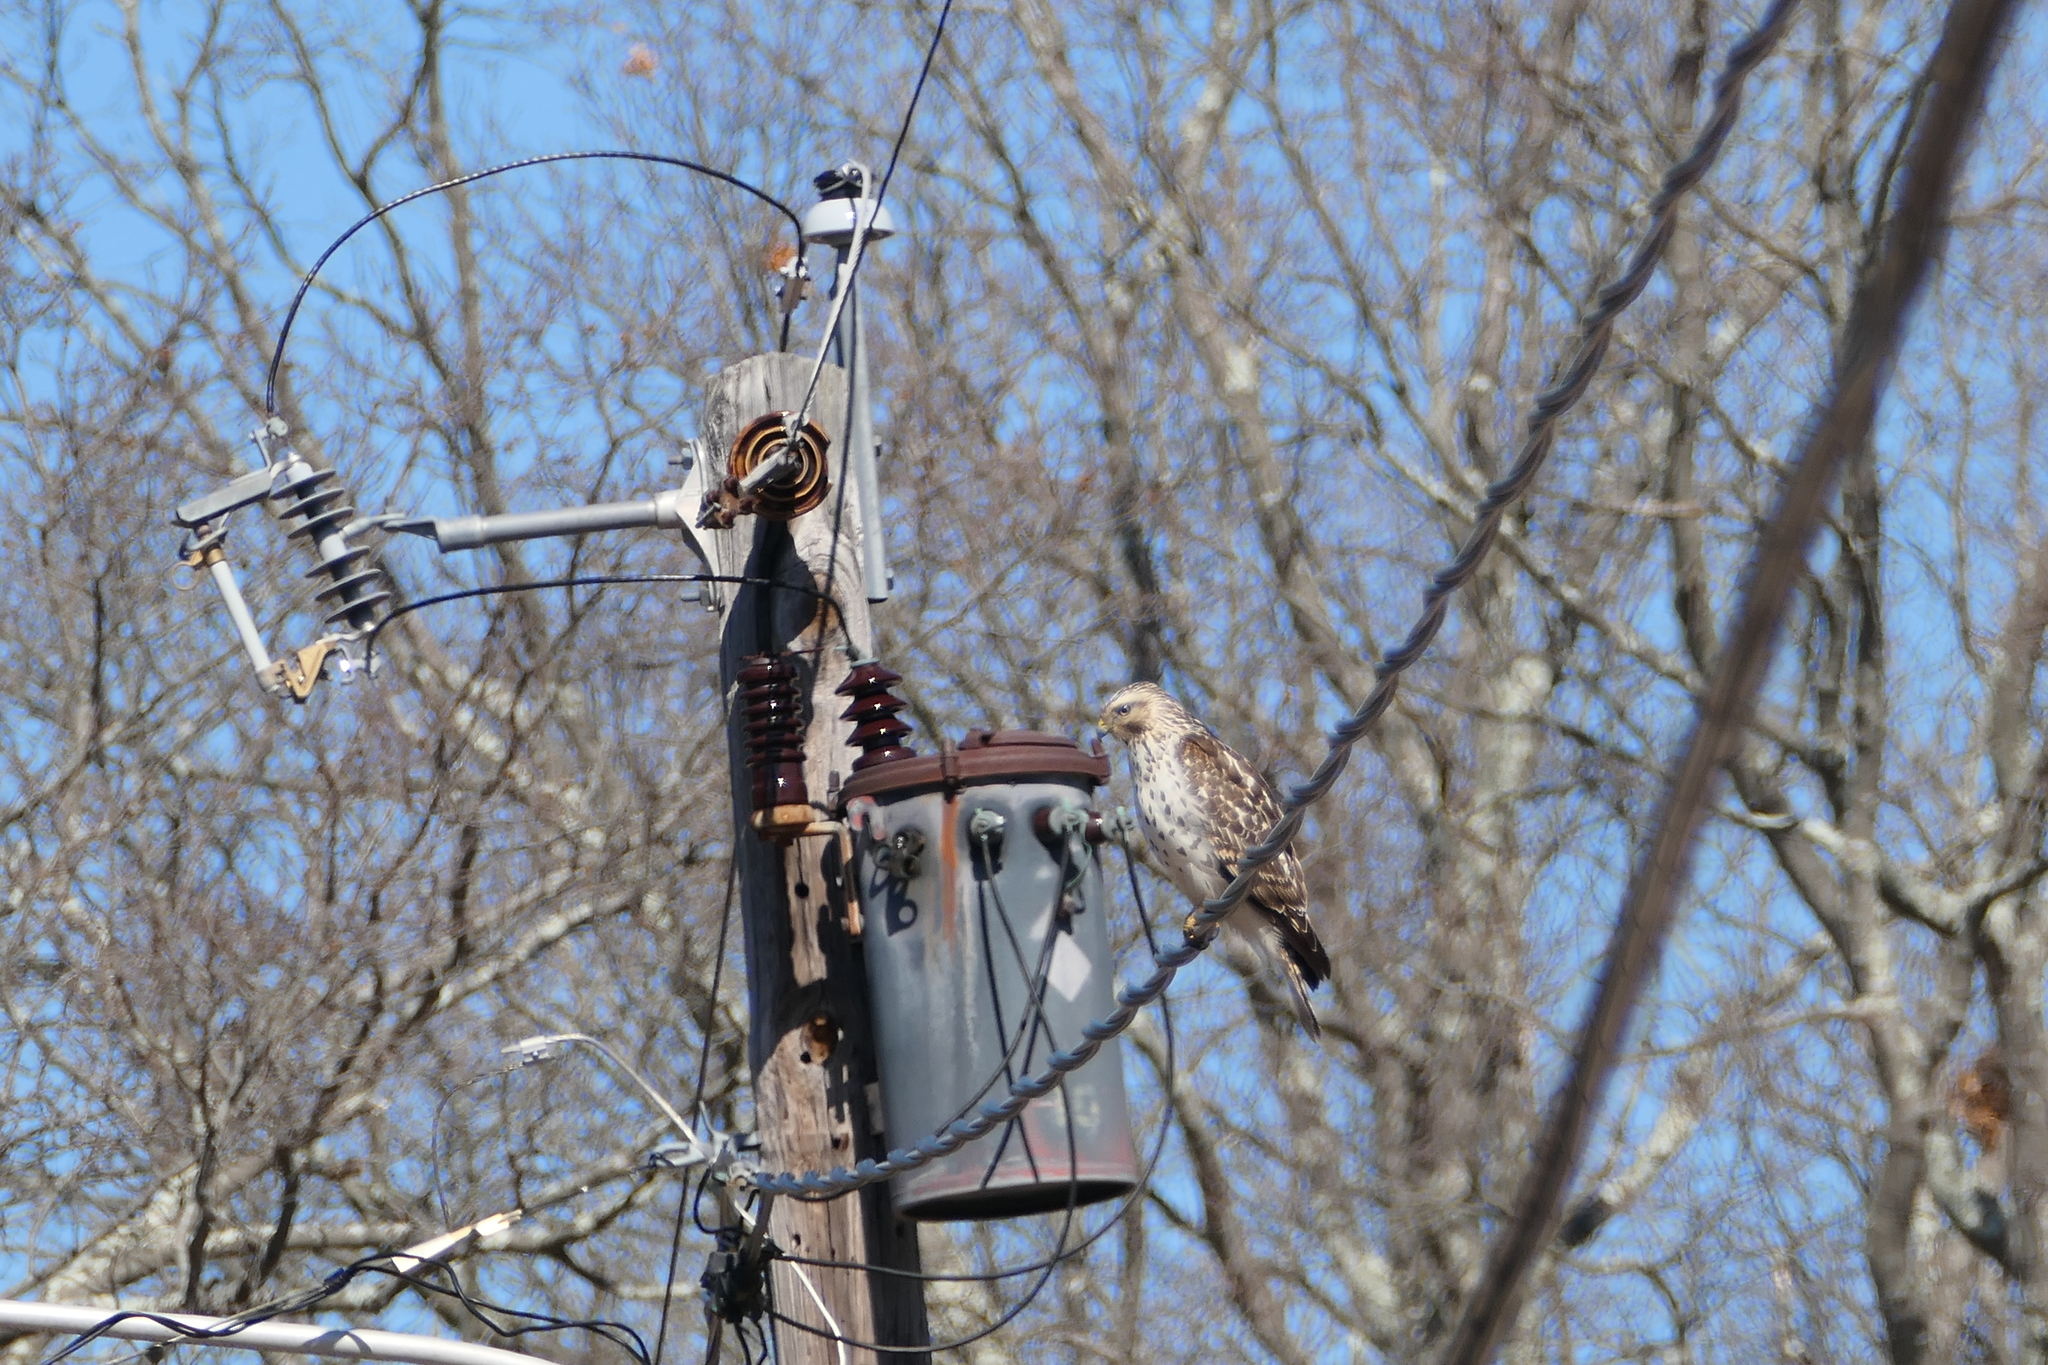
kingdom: Animalia
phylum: Chordata
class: Aves
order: Accipitriformes
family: Accipitridae
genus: Buteo
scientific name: Buteo lineatus
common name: Red-shouldered hawk
